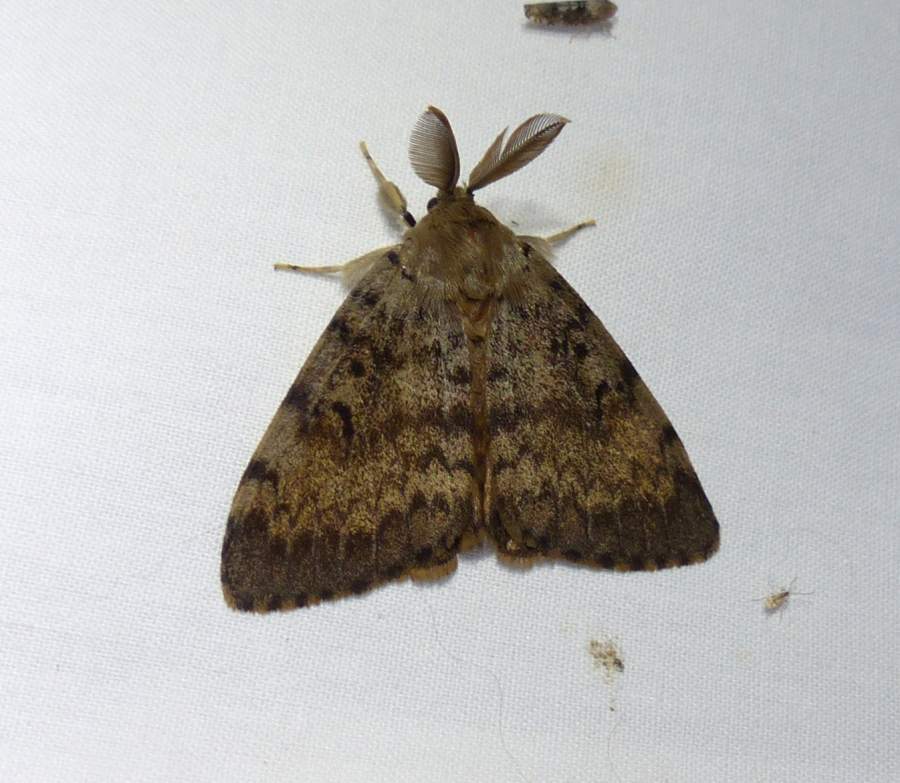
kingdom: Animalia
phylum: Arthropoda
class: Insecta
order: Lepidoptera
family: Erebidae
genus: Lymantria
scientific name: Lymantria dispar
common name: Gypsy moth
